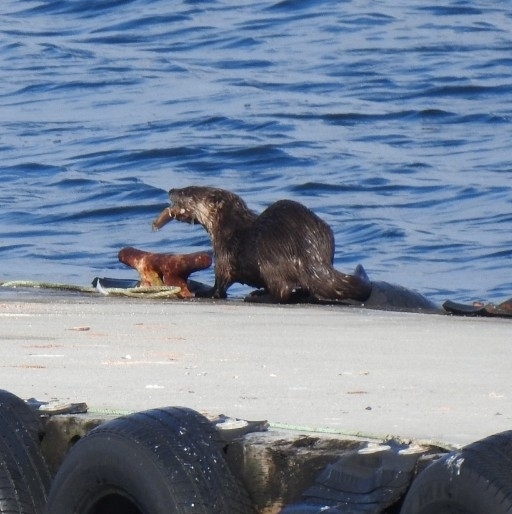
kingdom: Animalia
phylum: Chordata
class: Mammalia
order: Carnivora
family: Mustelidae
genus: Lontra
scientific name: Lontra canadensis
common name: North american river otter
